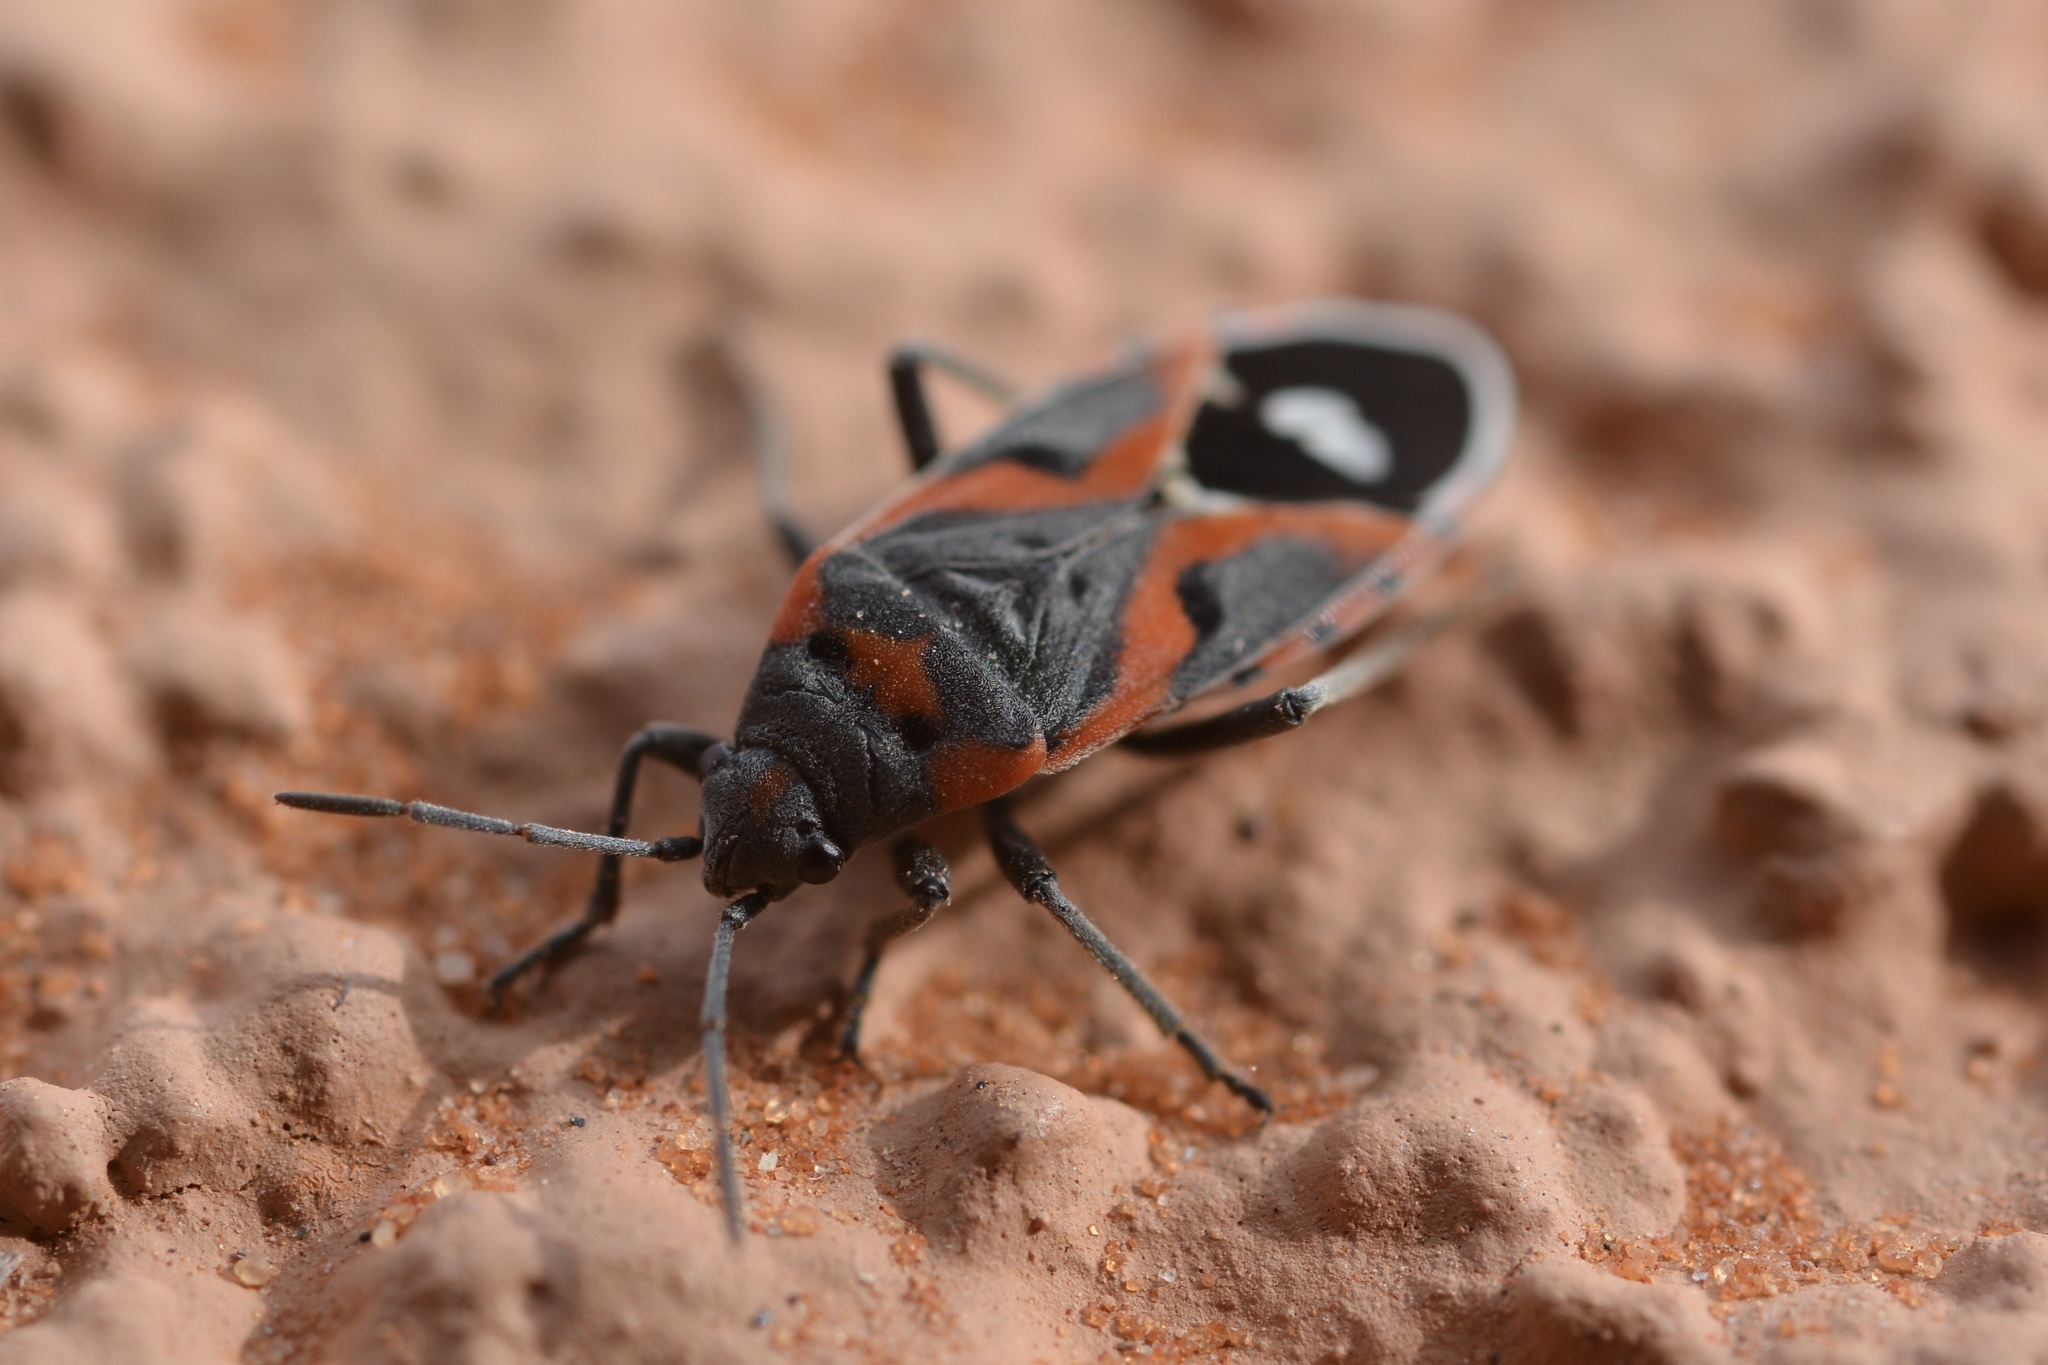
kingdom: Animalia
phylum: Arthropoda
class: Insecta
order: Hemiptera
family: Lygaeidae
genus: Lygaeus
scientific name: Lygaeus kalmii
